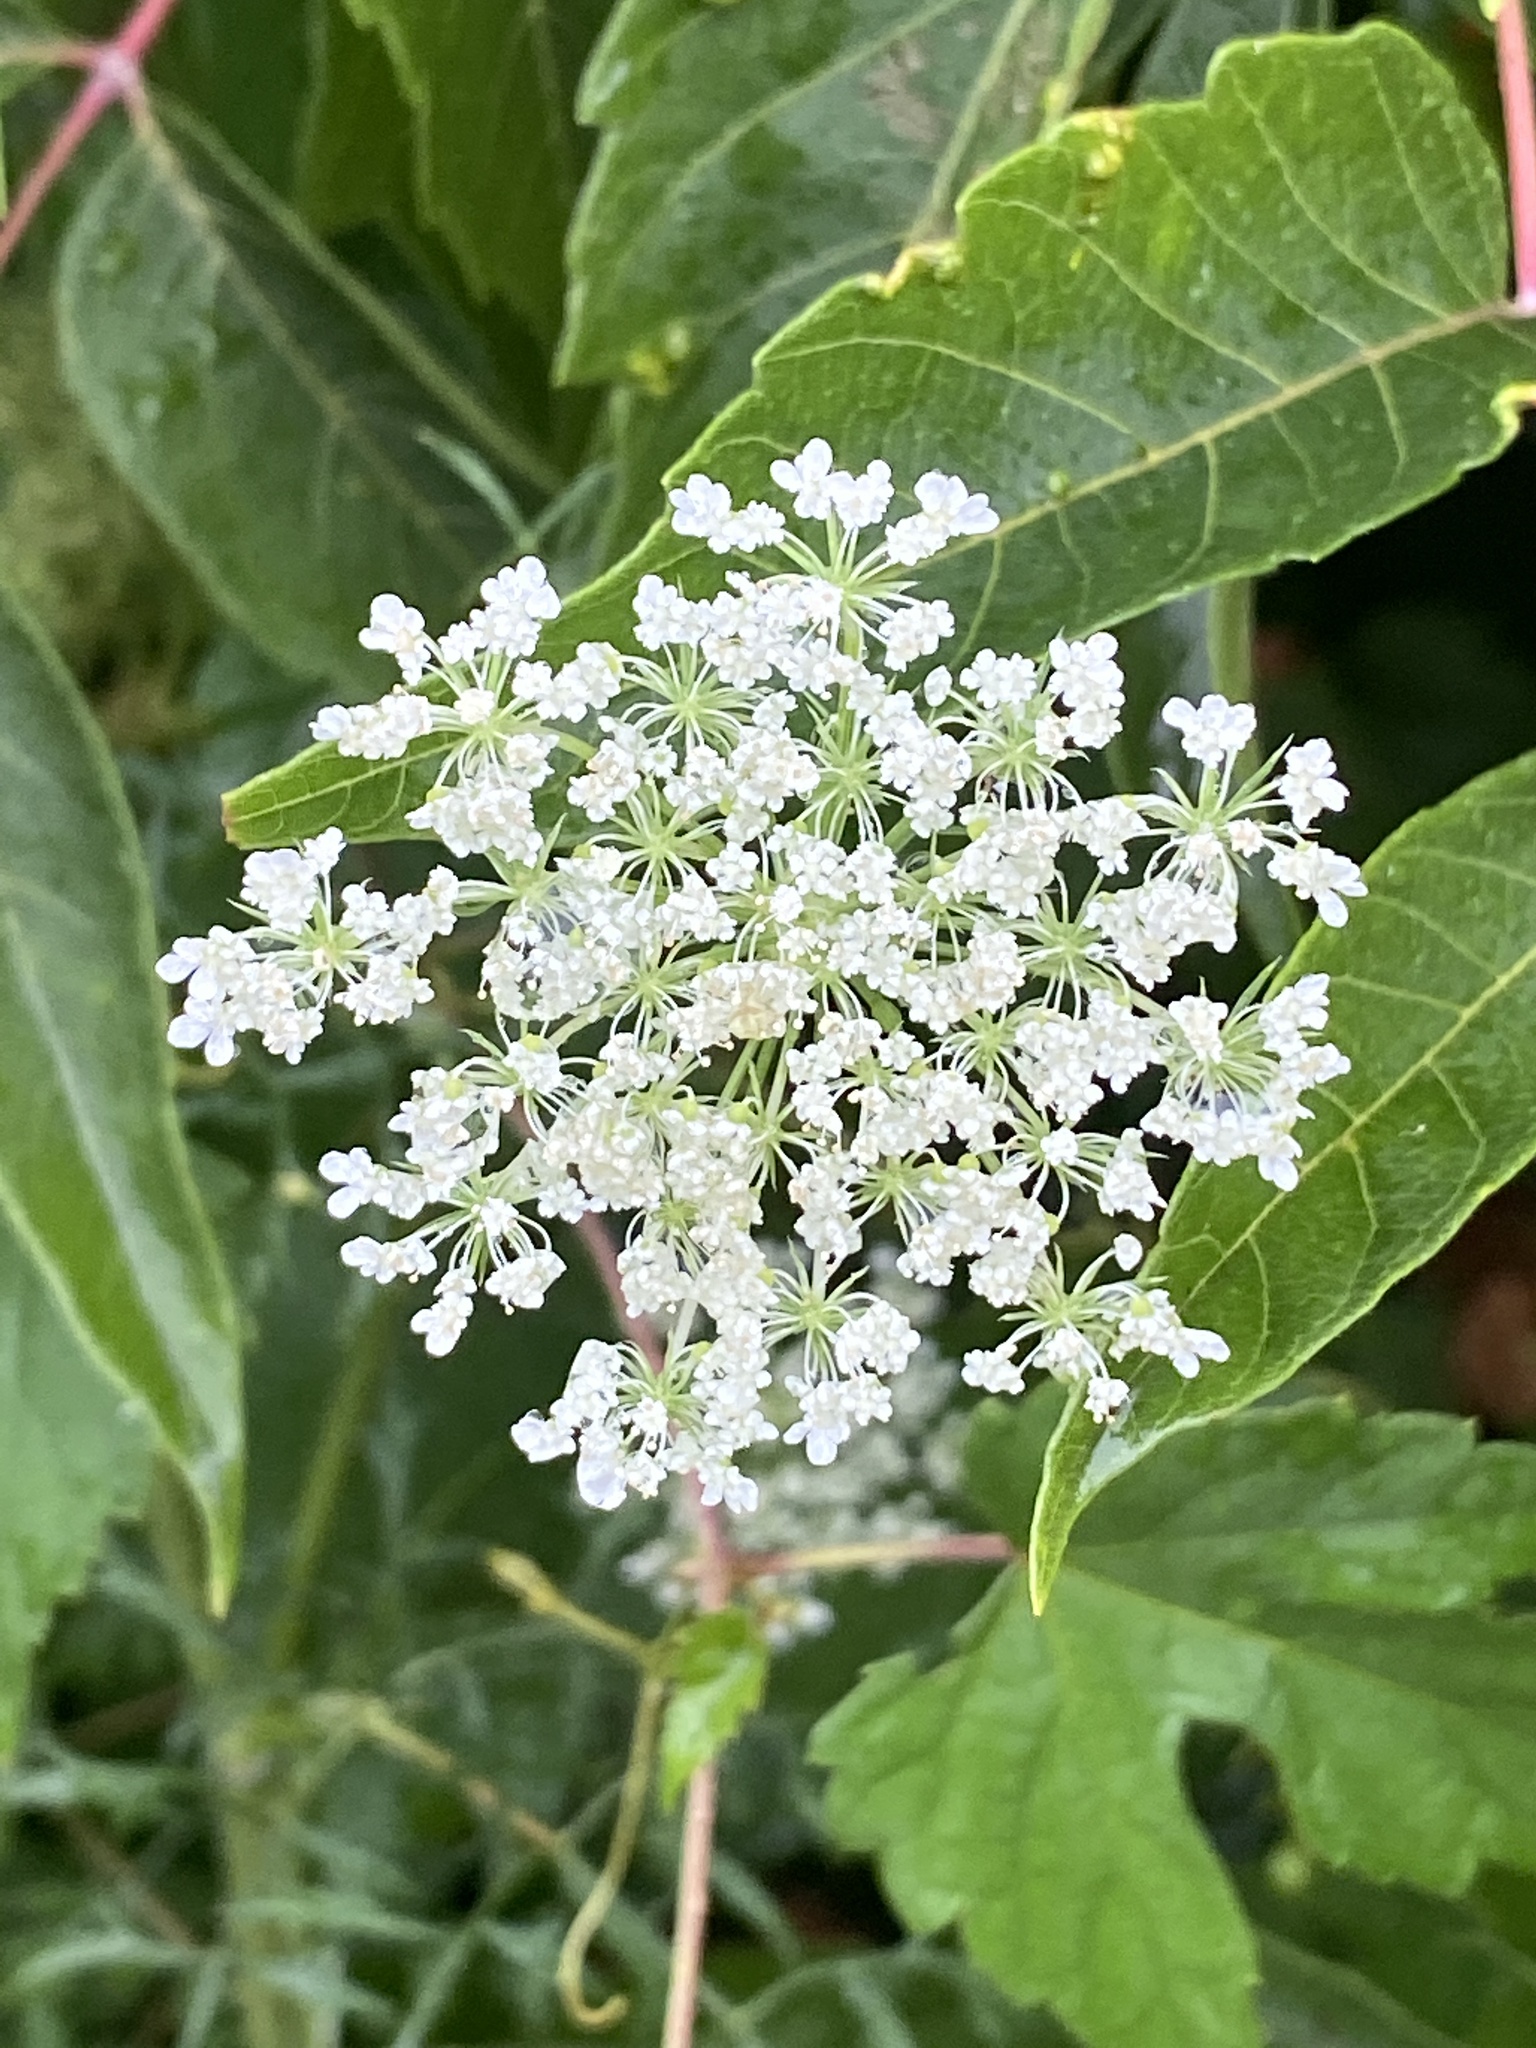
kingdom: Plantae
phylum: Tracheophyta
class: Magnoliopsida
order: Apiales
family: Apiaceae
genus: Daucus
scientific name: Daucus carota
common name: Wild carrot
